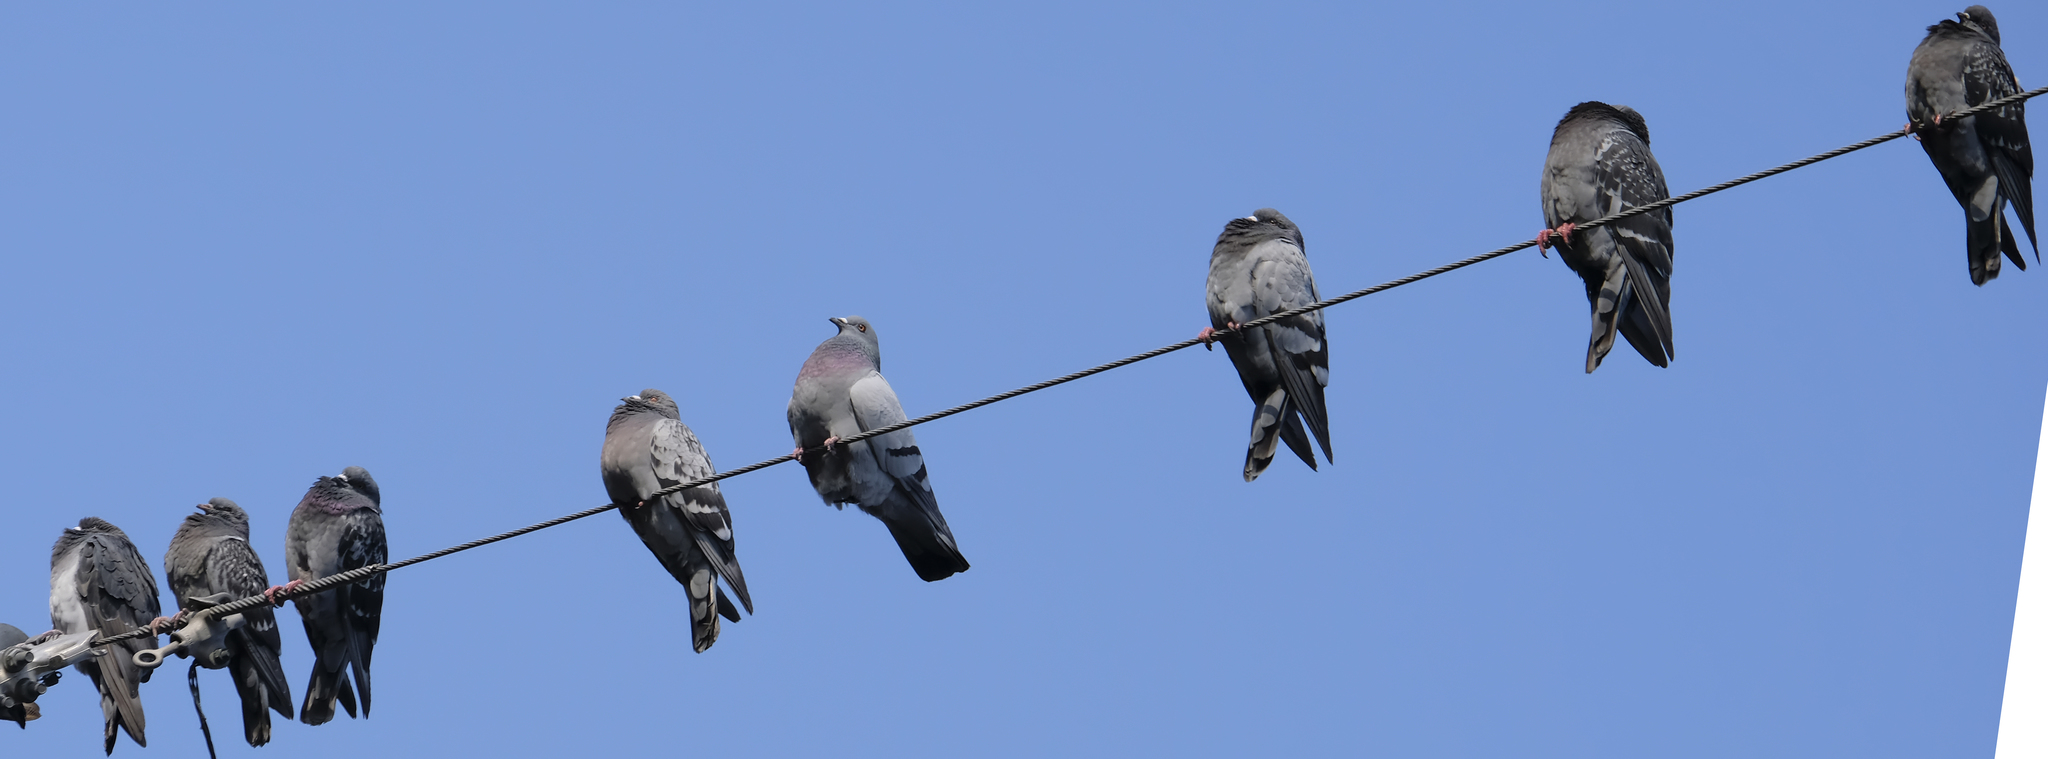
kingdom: Animalia
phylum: Chordata
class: Aves
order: Columbiformes
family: Columbidae
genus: Columba
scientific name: Columba livia
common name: Rock pigeon
